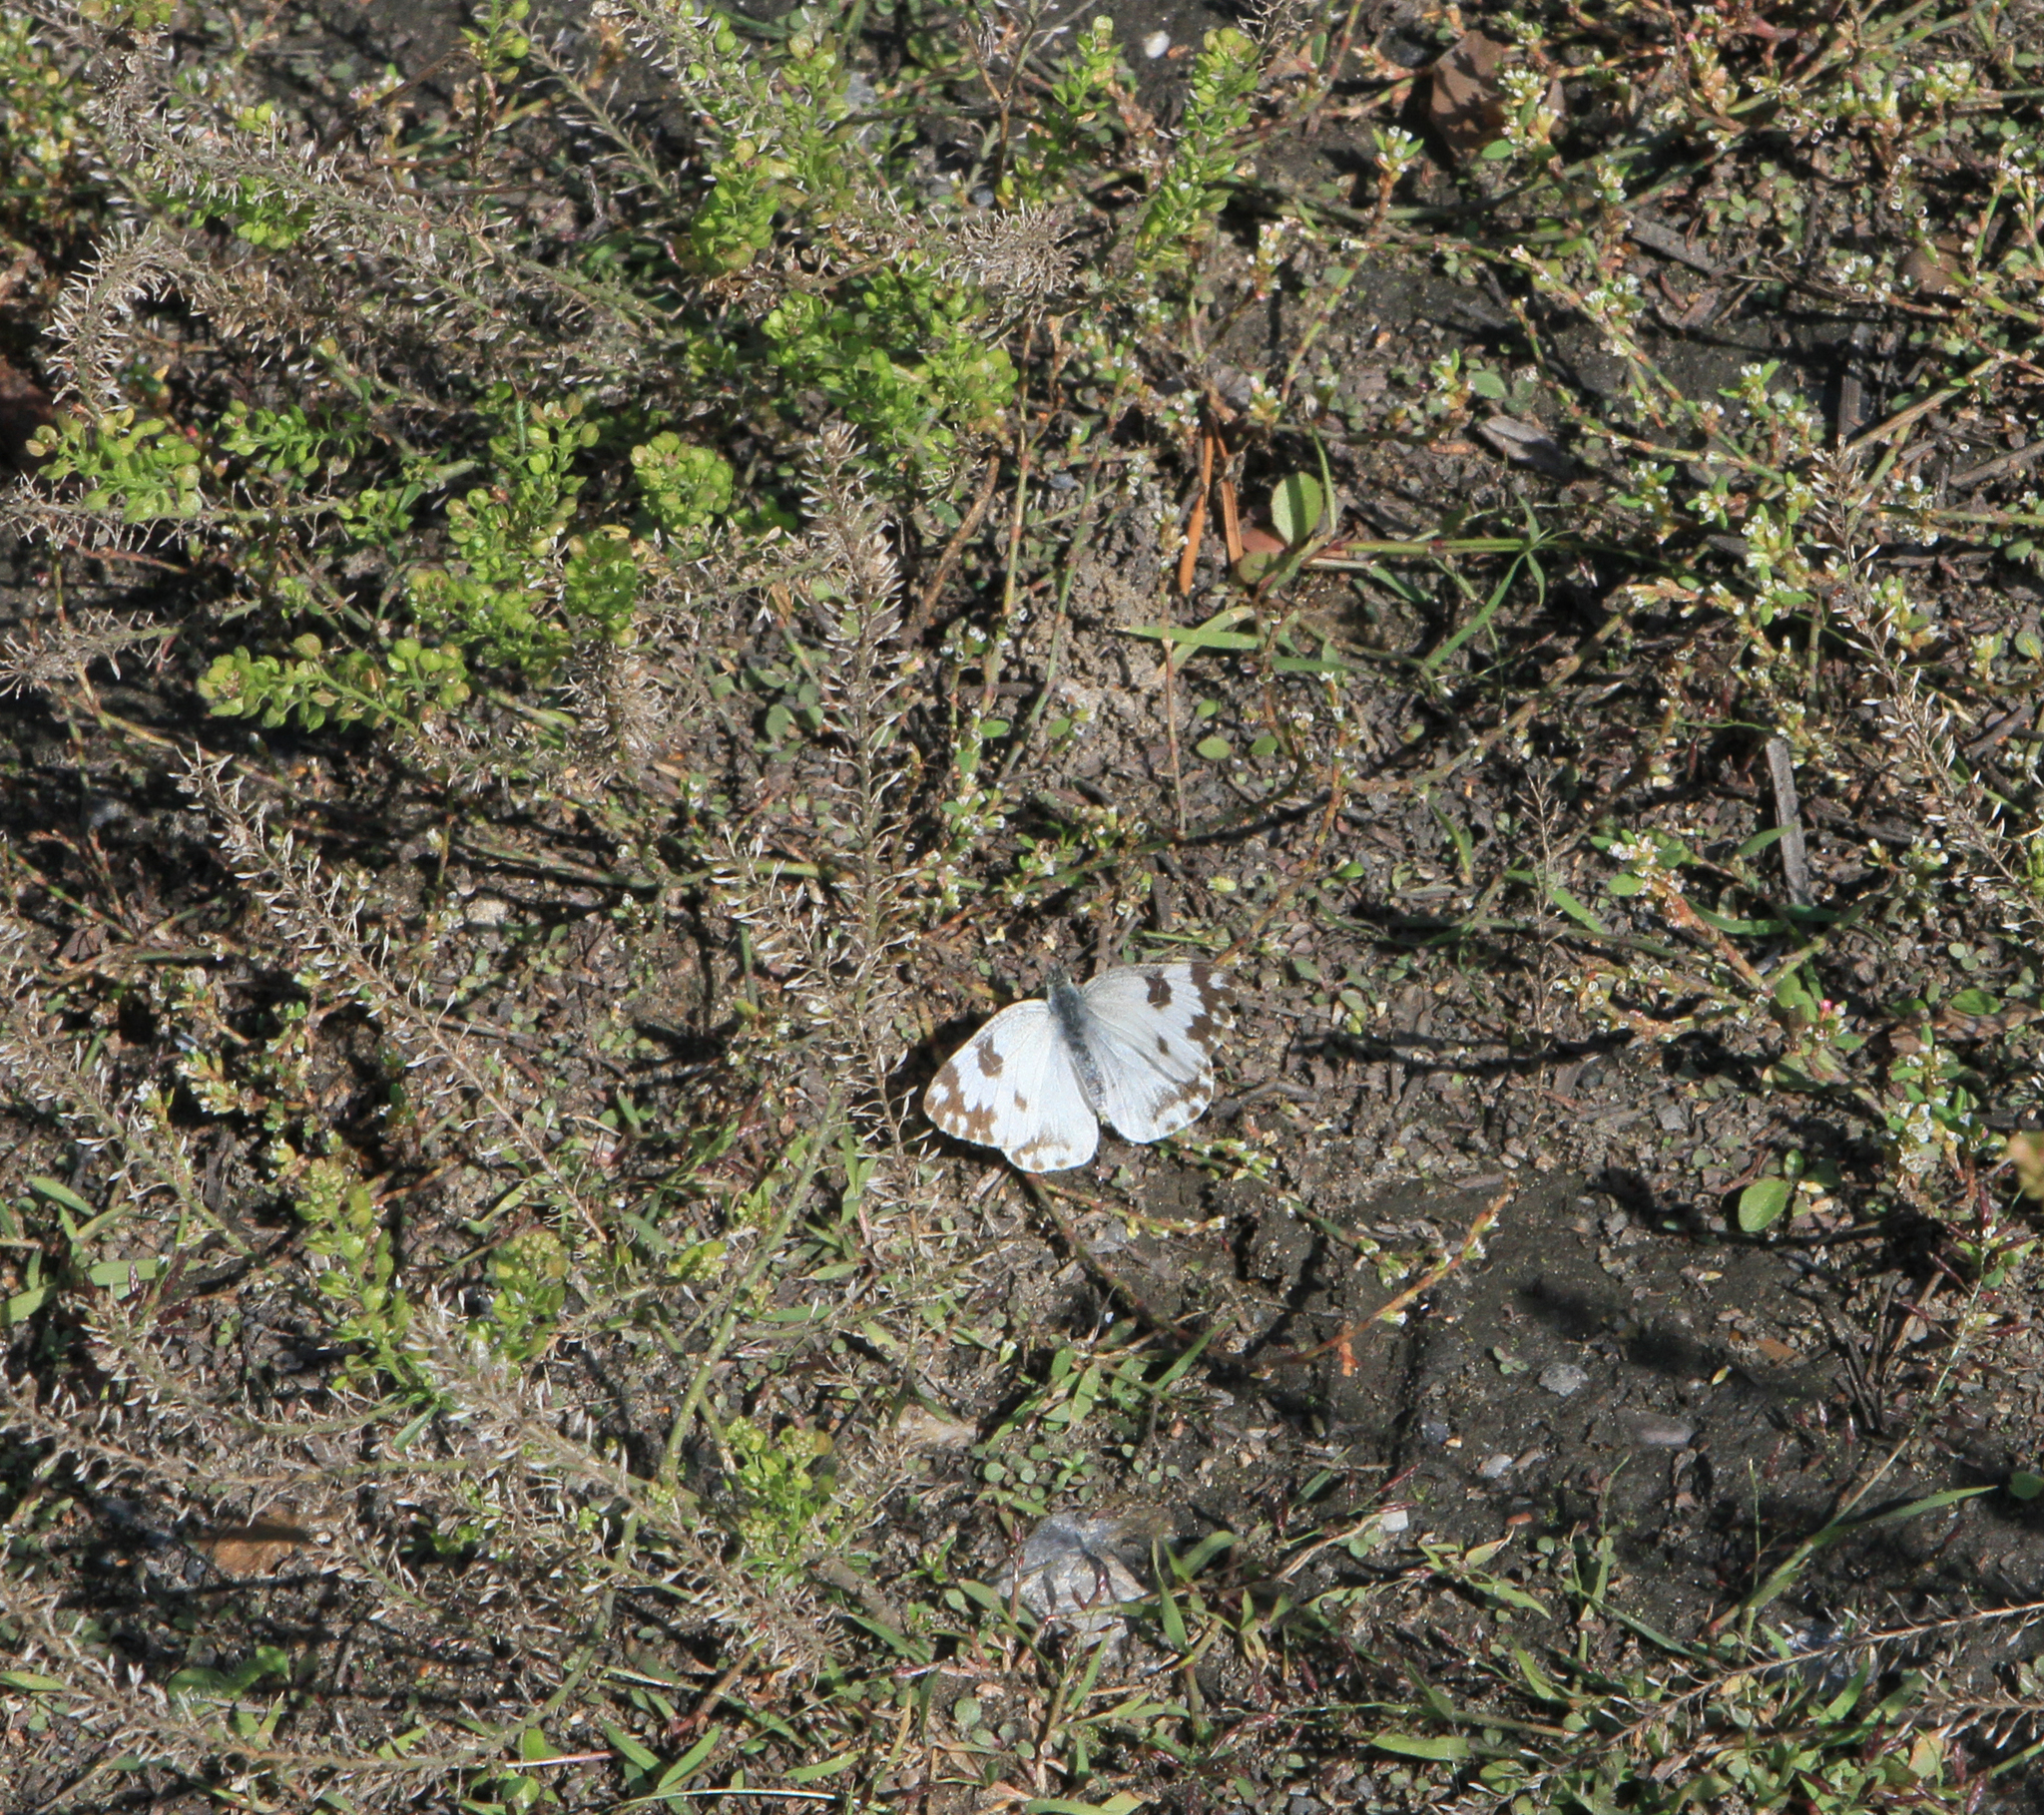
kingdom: Animalia
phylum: Arthropoda
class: Insecta
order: Lepidoptera
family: Pieridae
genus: Pontia
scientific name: Pontia edusa
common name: Eastern bath white
